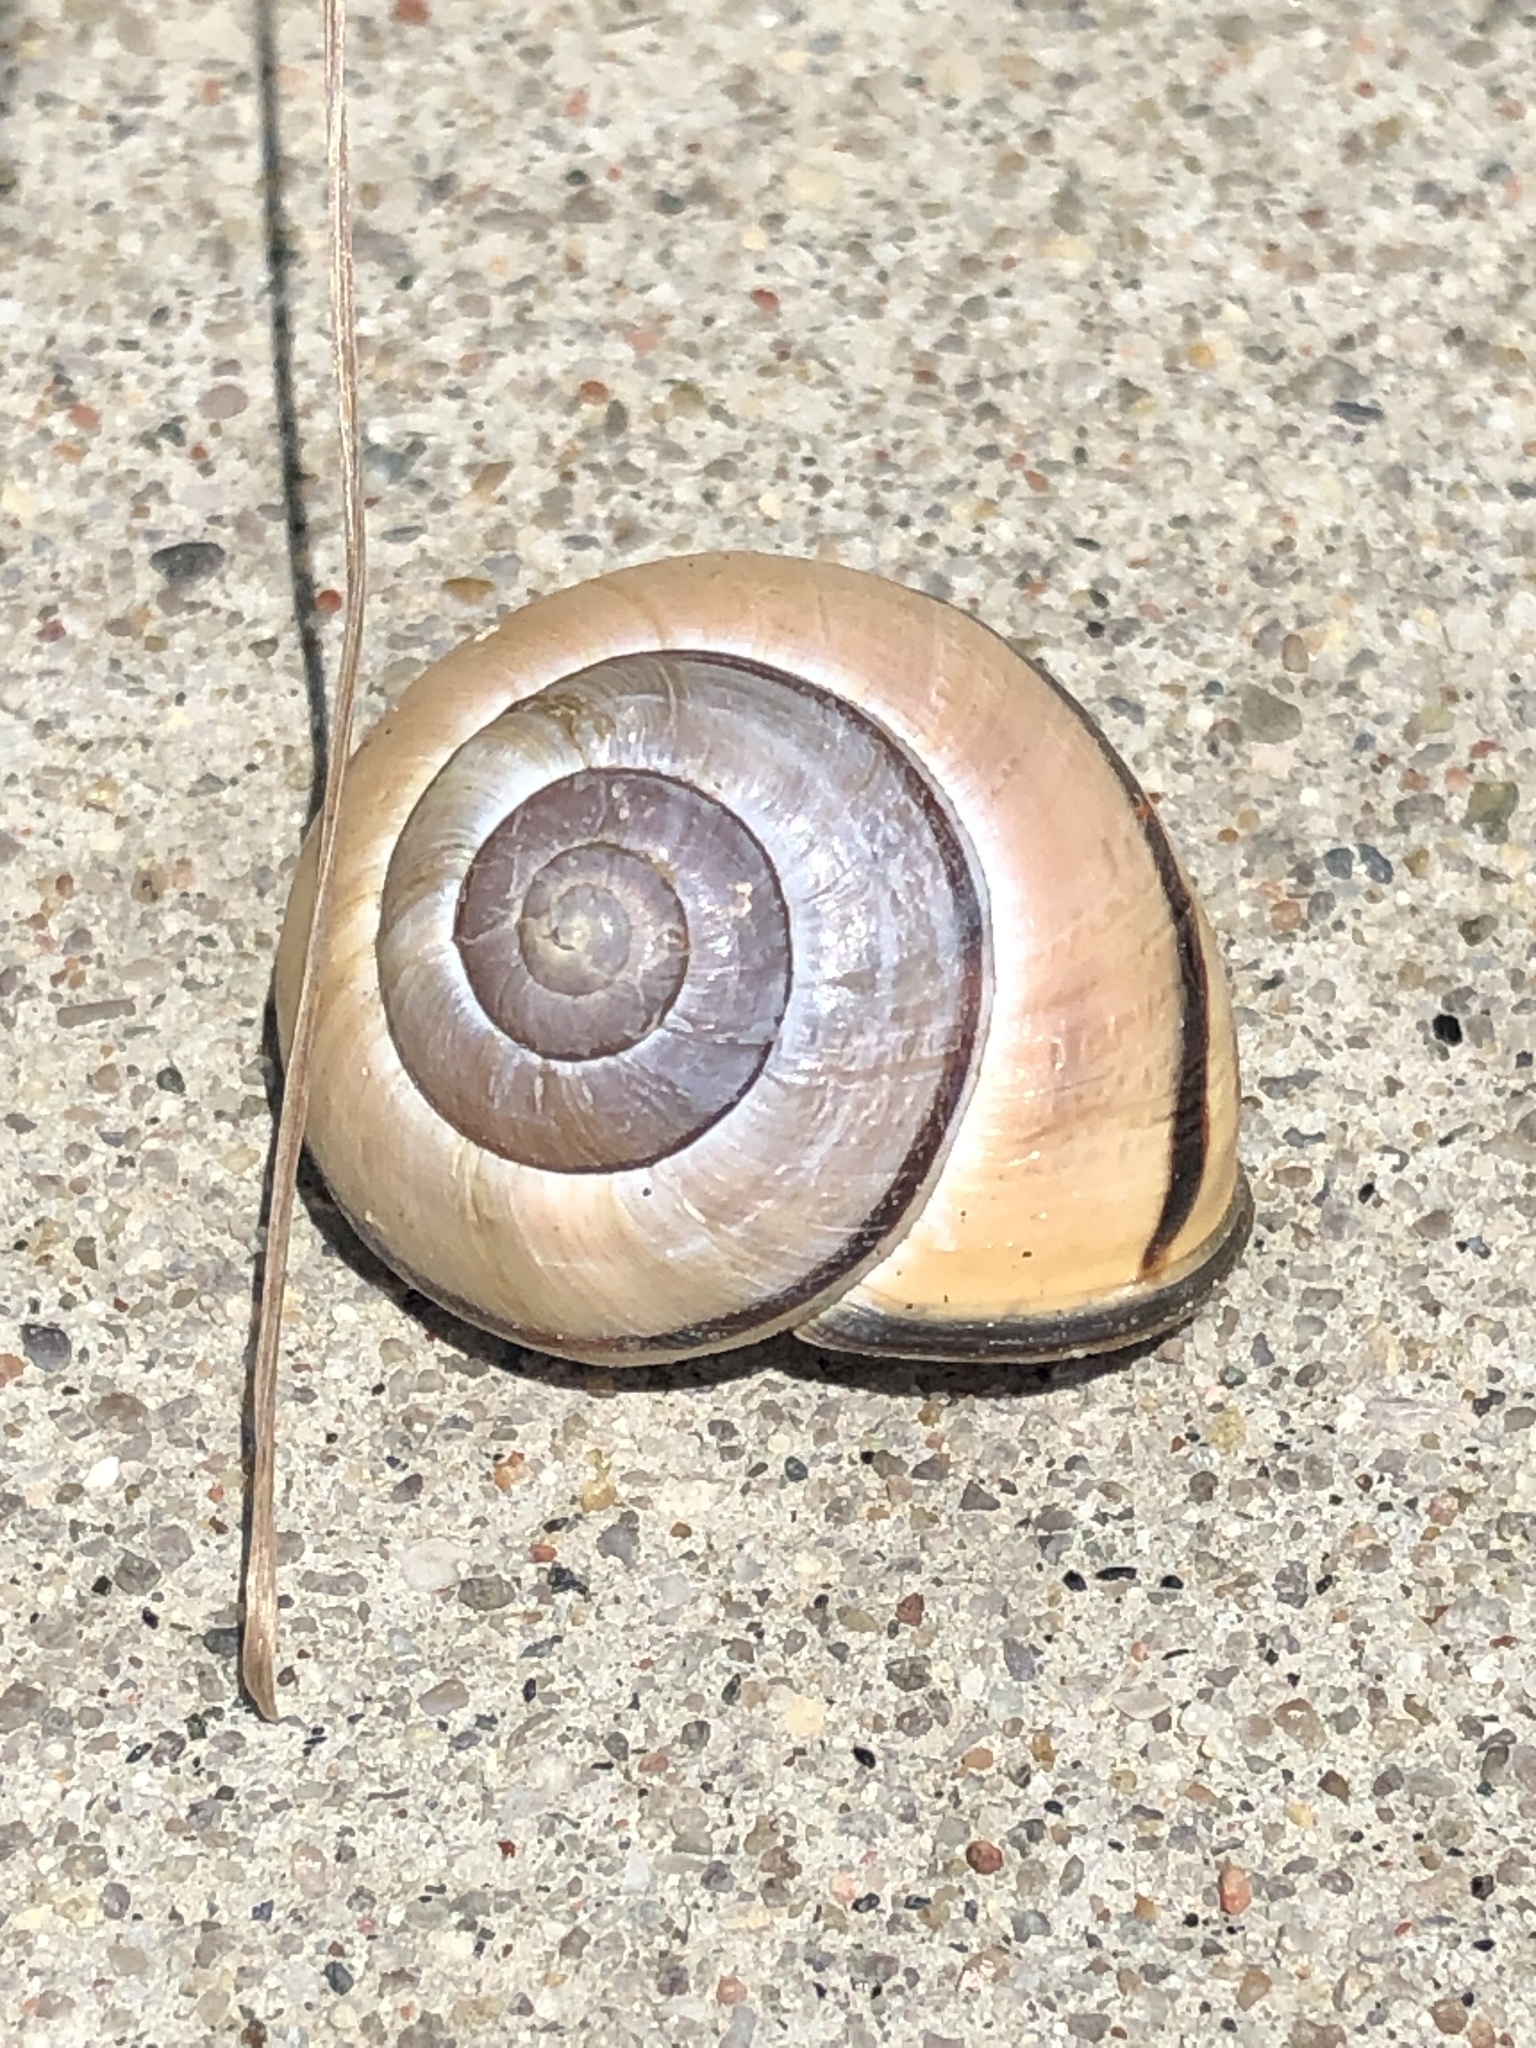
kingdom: Animalia
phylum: Mollusca
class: Gastropoda
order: Stylommatophora
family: Helicidae
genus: Cepaea
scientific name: Cepaea nemoralis
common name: Grovesnail
